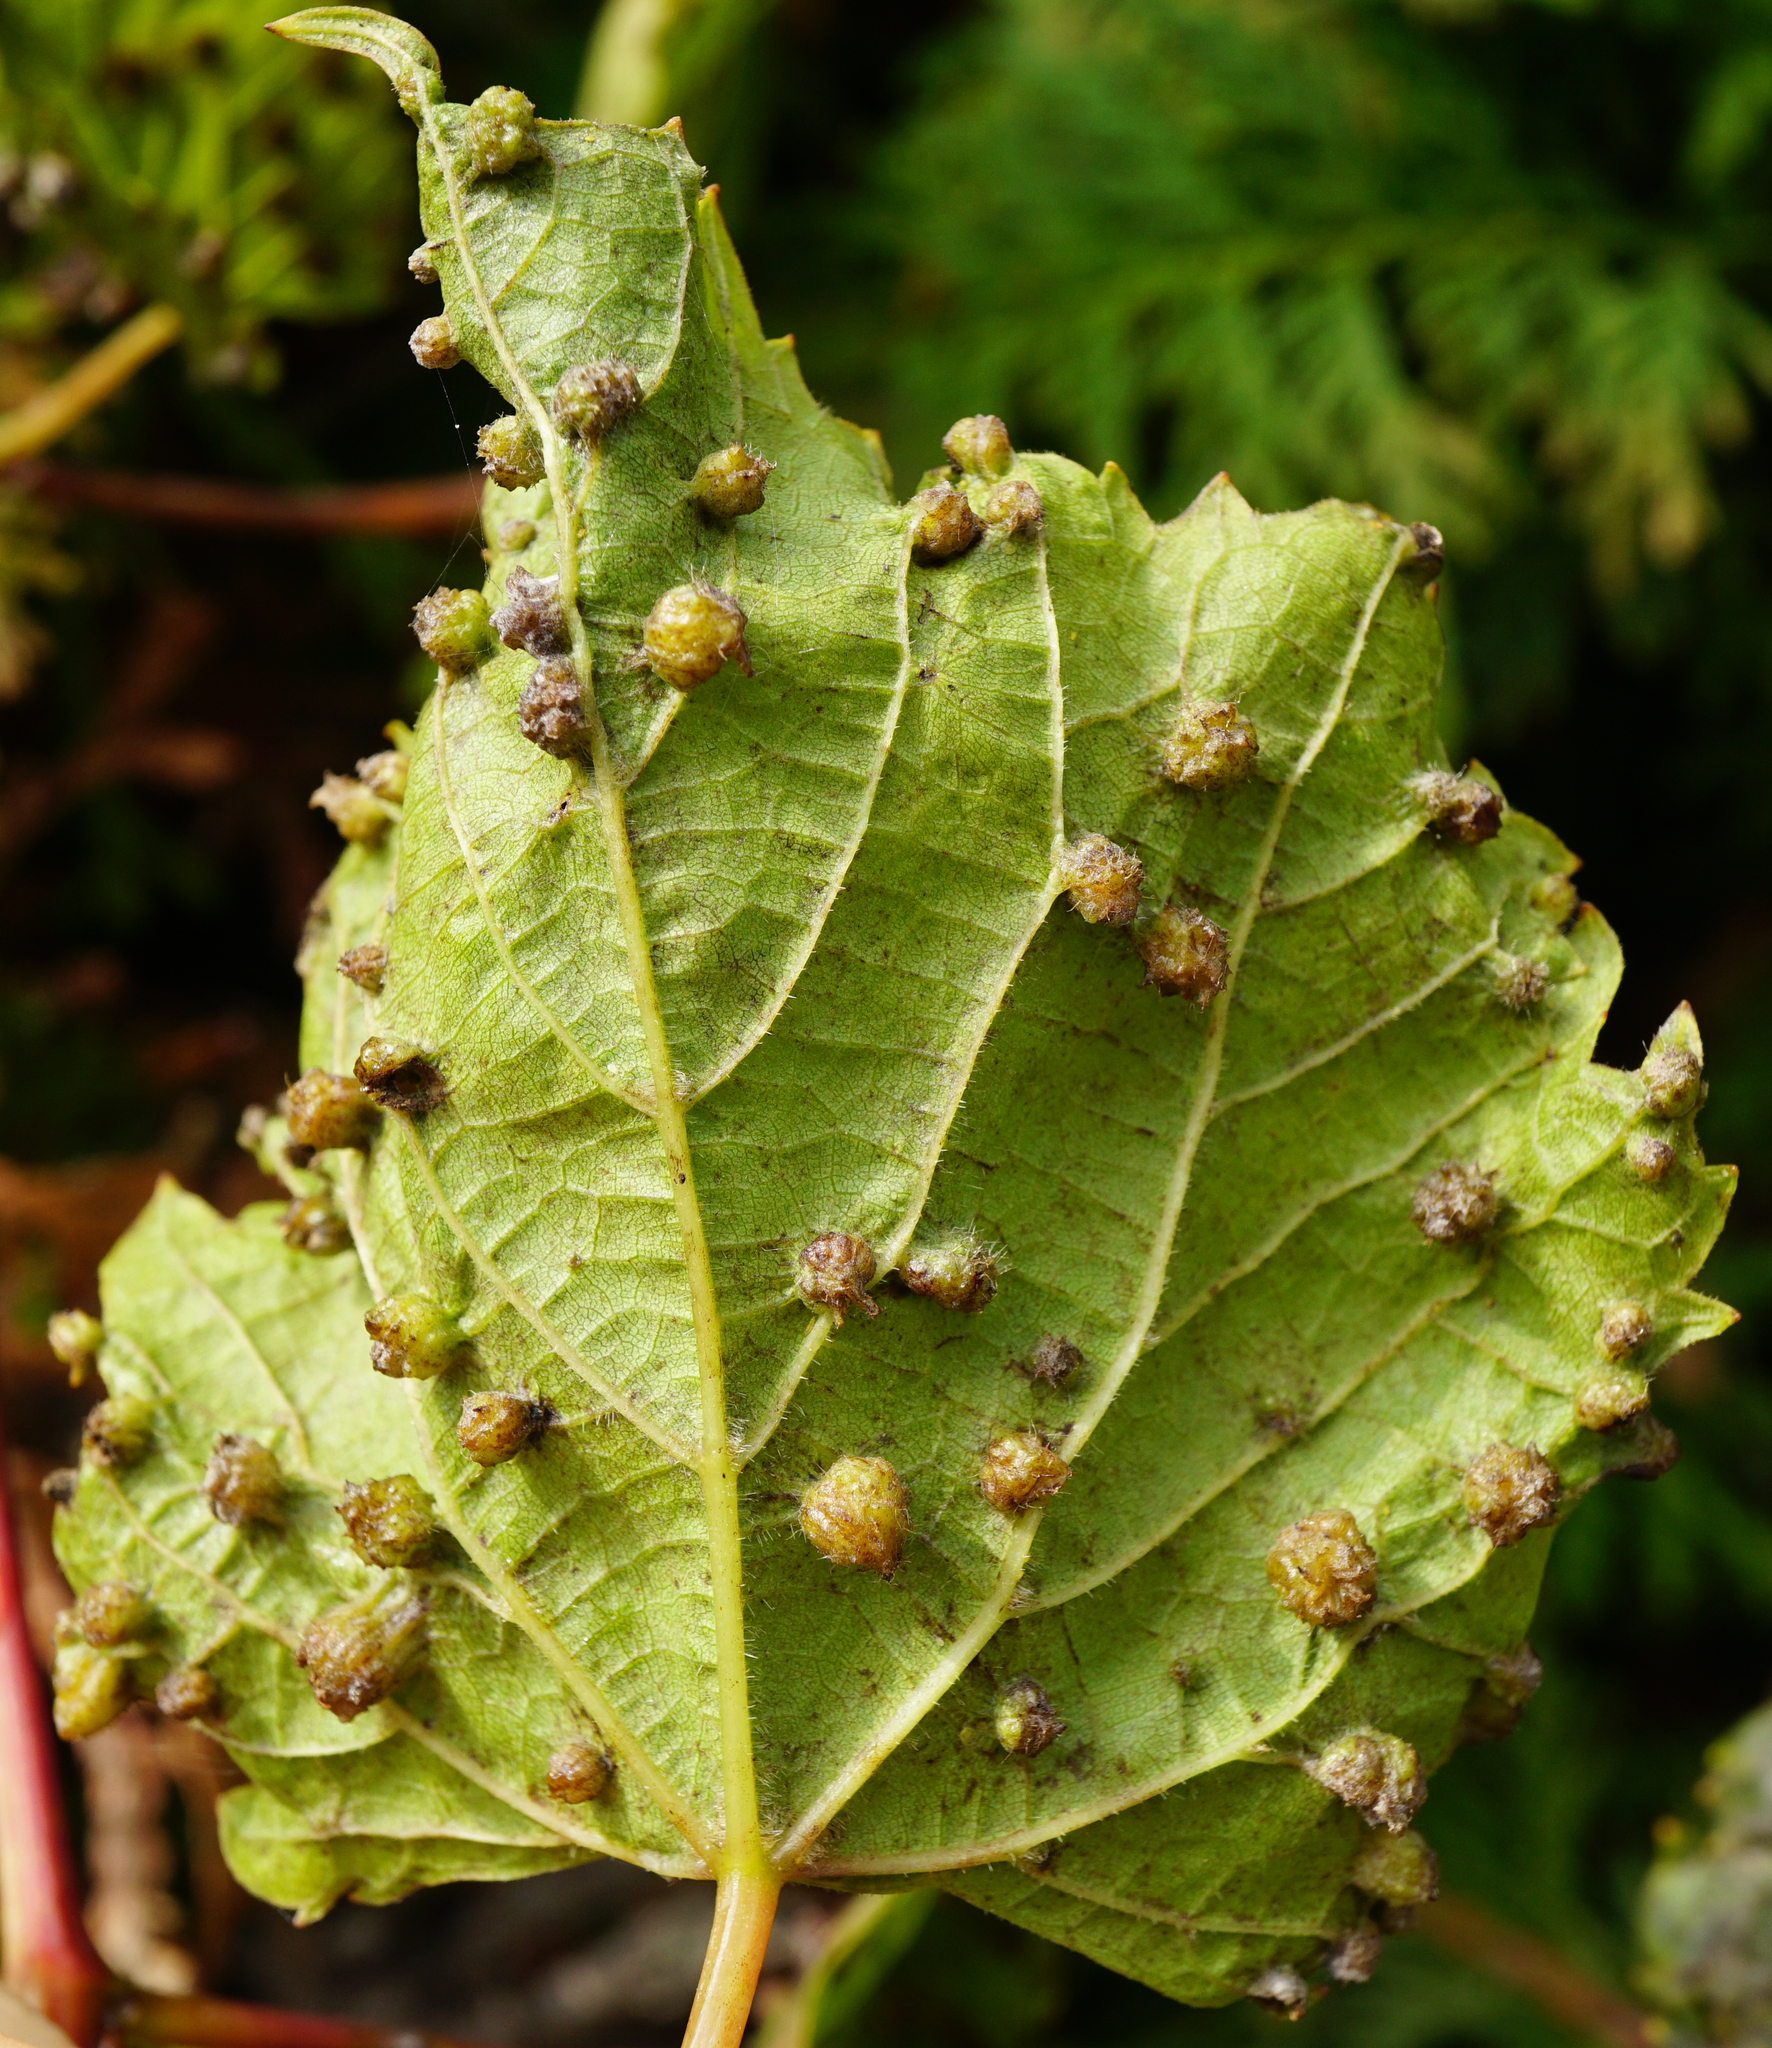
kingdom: Animalia
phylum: Arthropoda
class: Insecta
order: Hemiptera
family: Phylloxeridae
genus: Daktulosphaira
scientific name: Daktulosphaira vitifoliae
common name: Grape phylloxera
